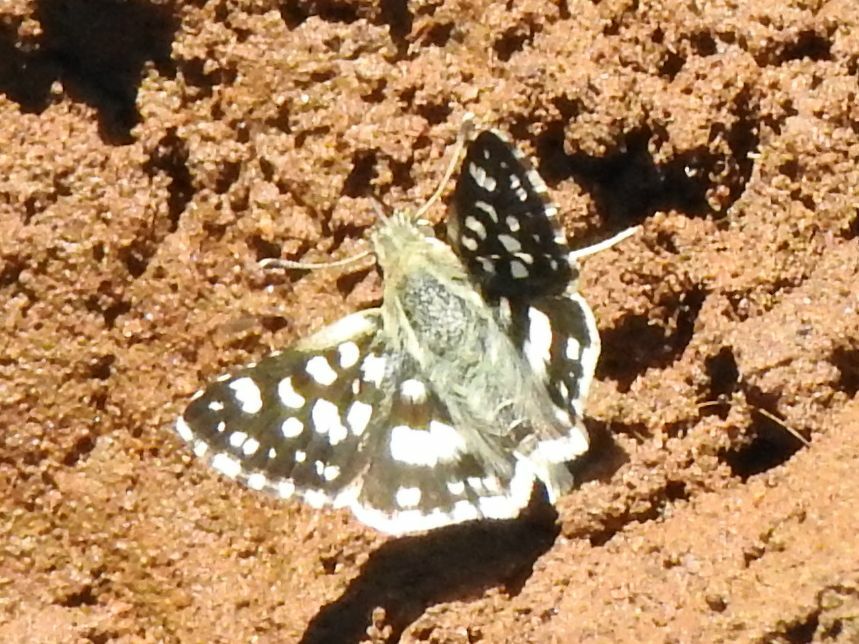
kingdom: Animalia
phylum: Arthropoda
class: Insecta
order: Lepidoptera
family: Hesperiidae
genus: Ernsta
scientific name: Ernsta
